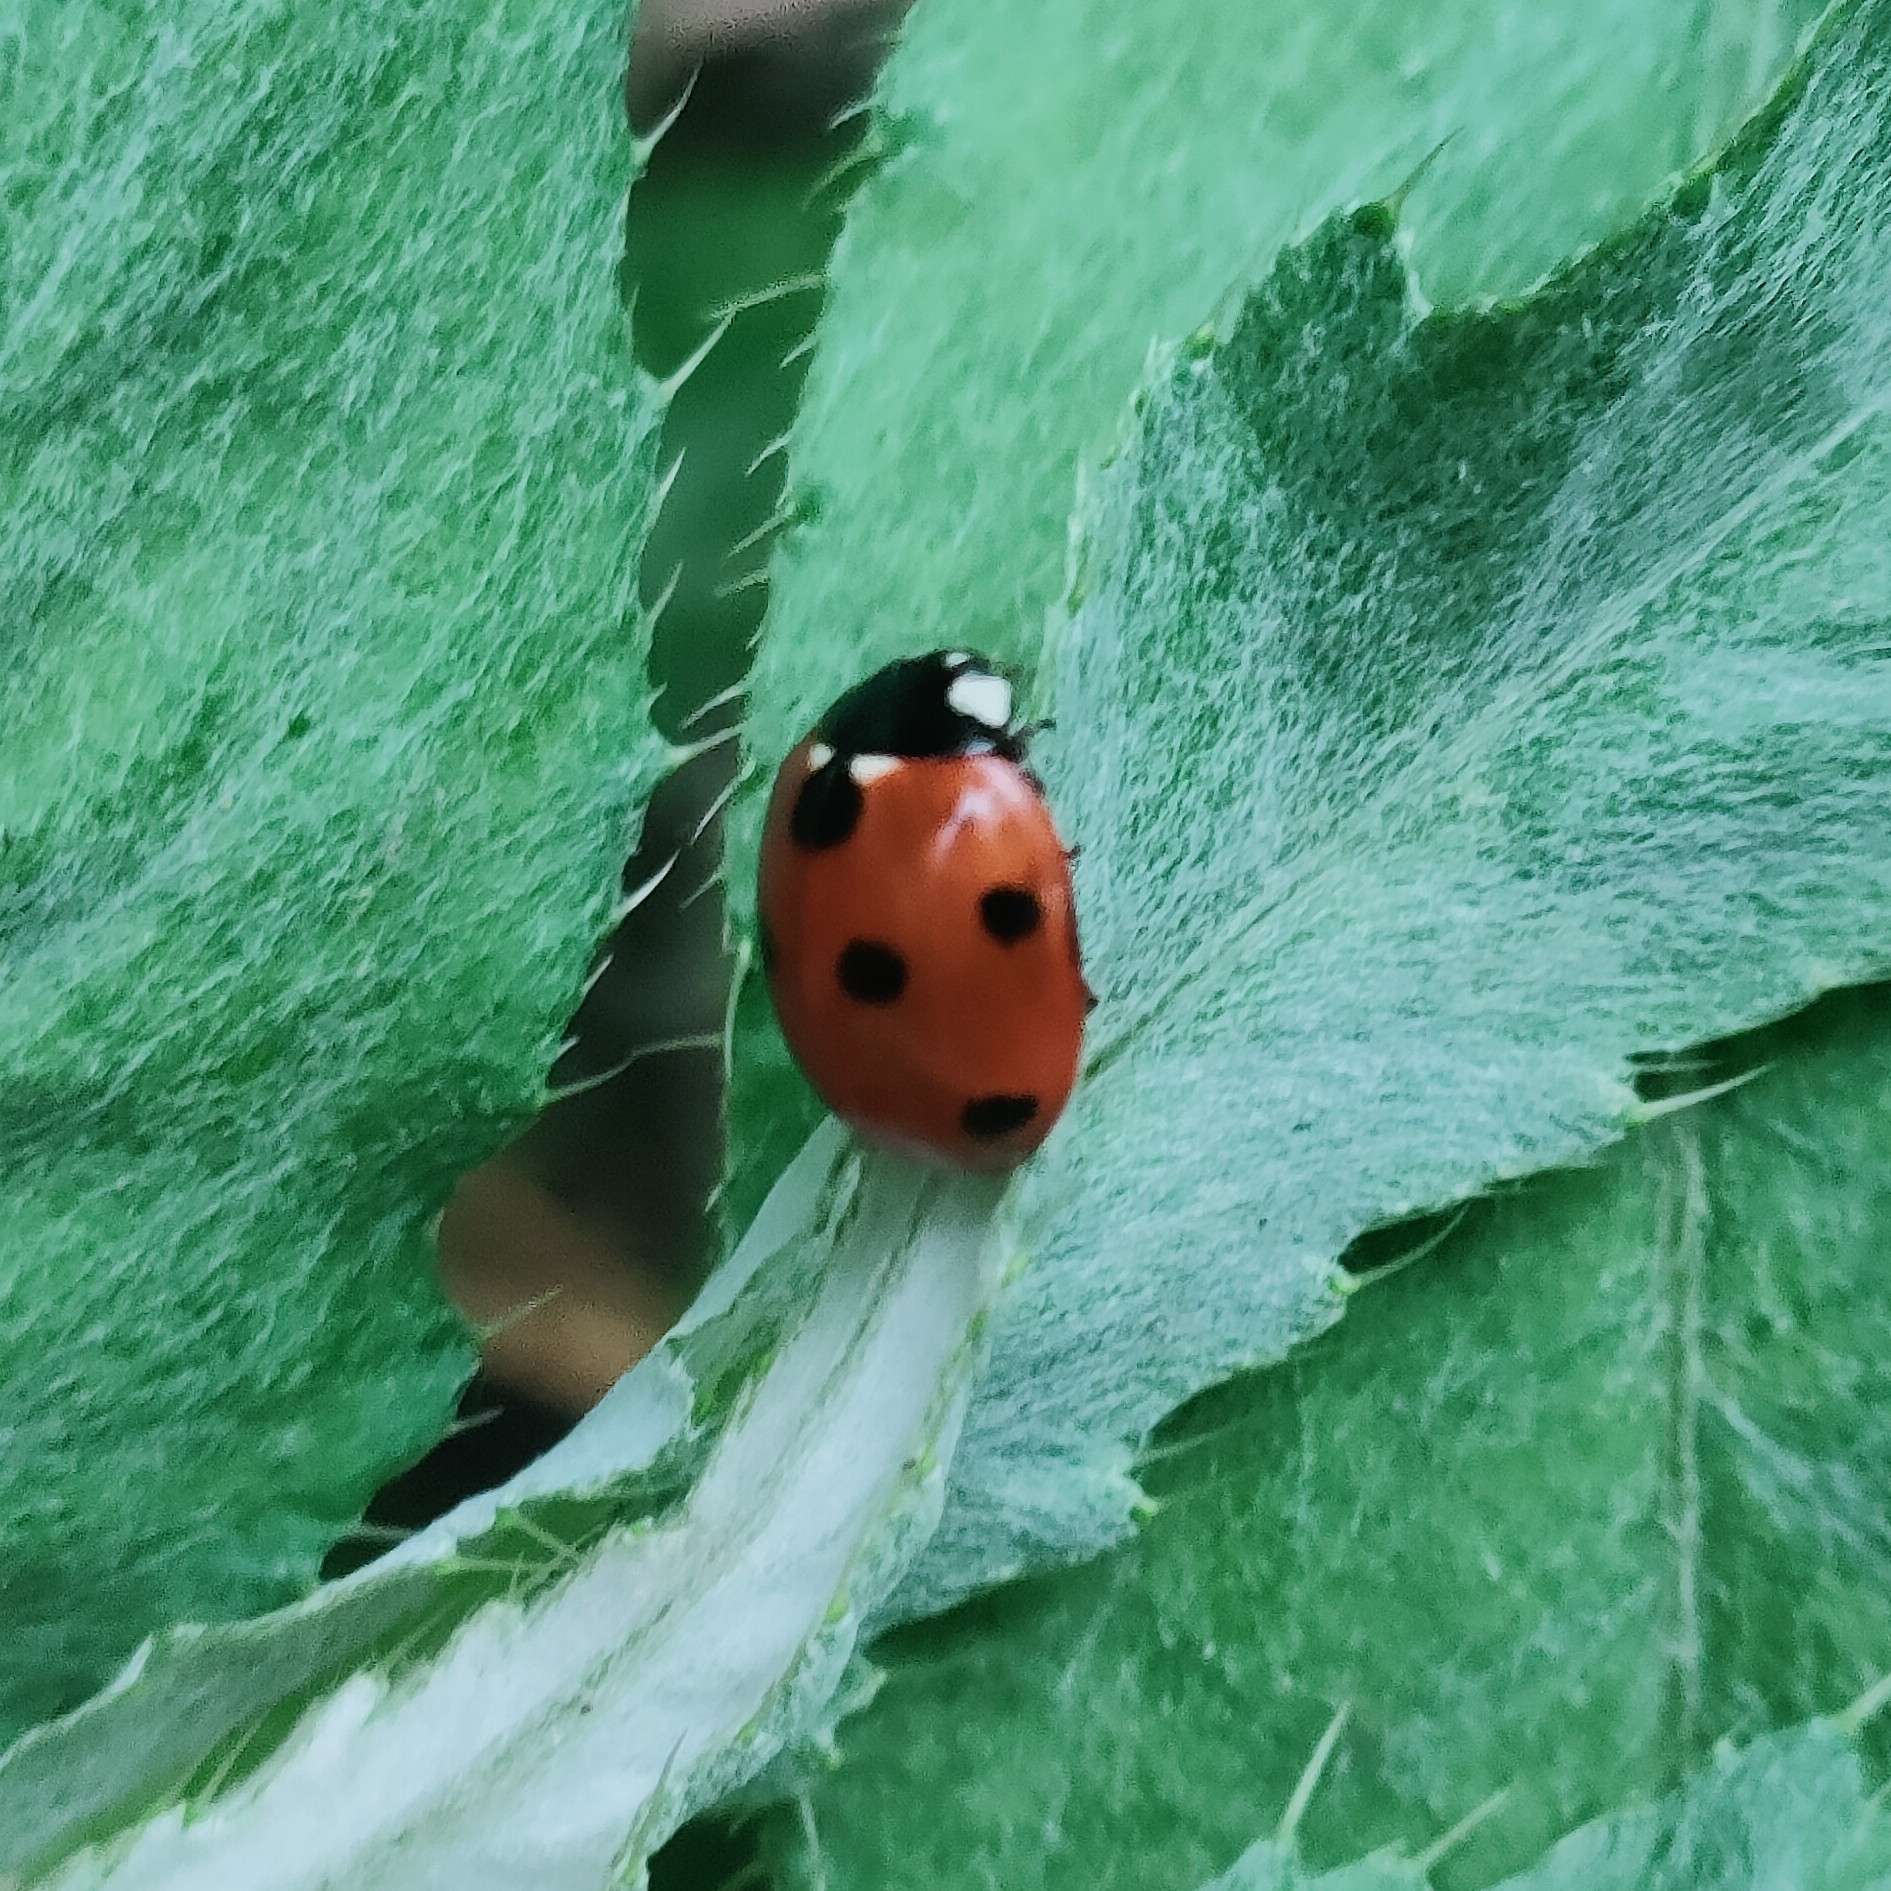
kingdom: Animalia
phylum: Arthropoda
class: Insecta
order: Coleoptera
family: Coccinellidae
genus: Coccinella
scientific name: Coccinella septempunctata
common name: Sevenspotted lady beetle
